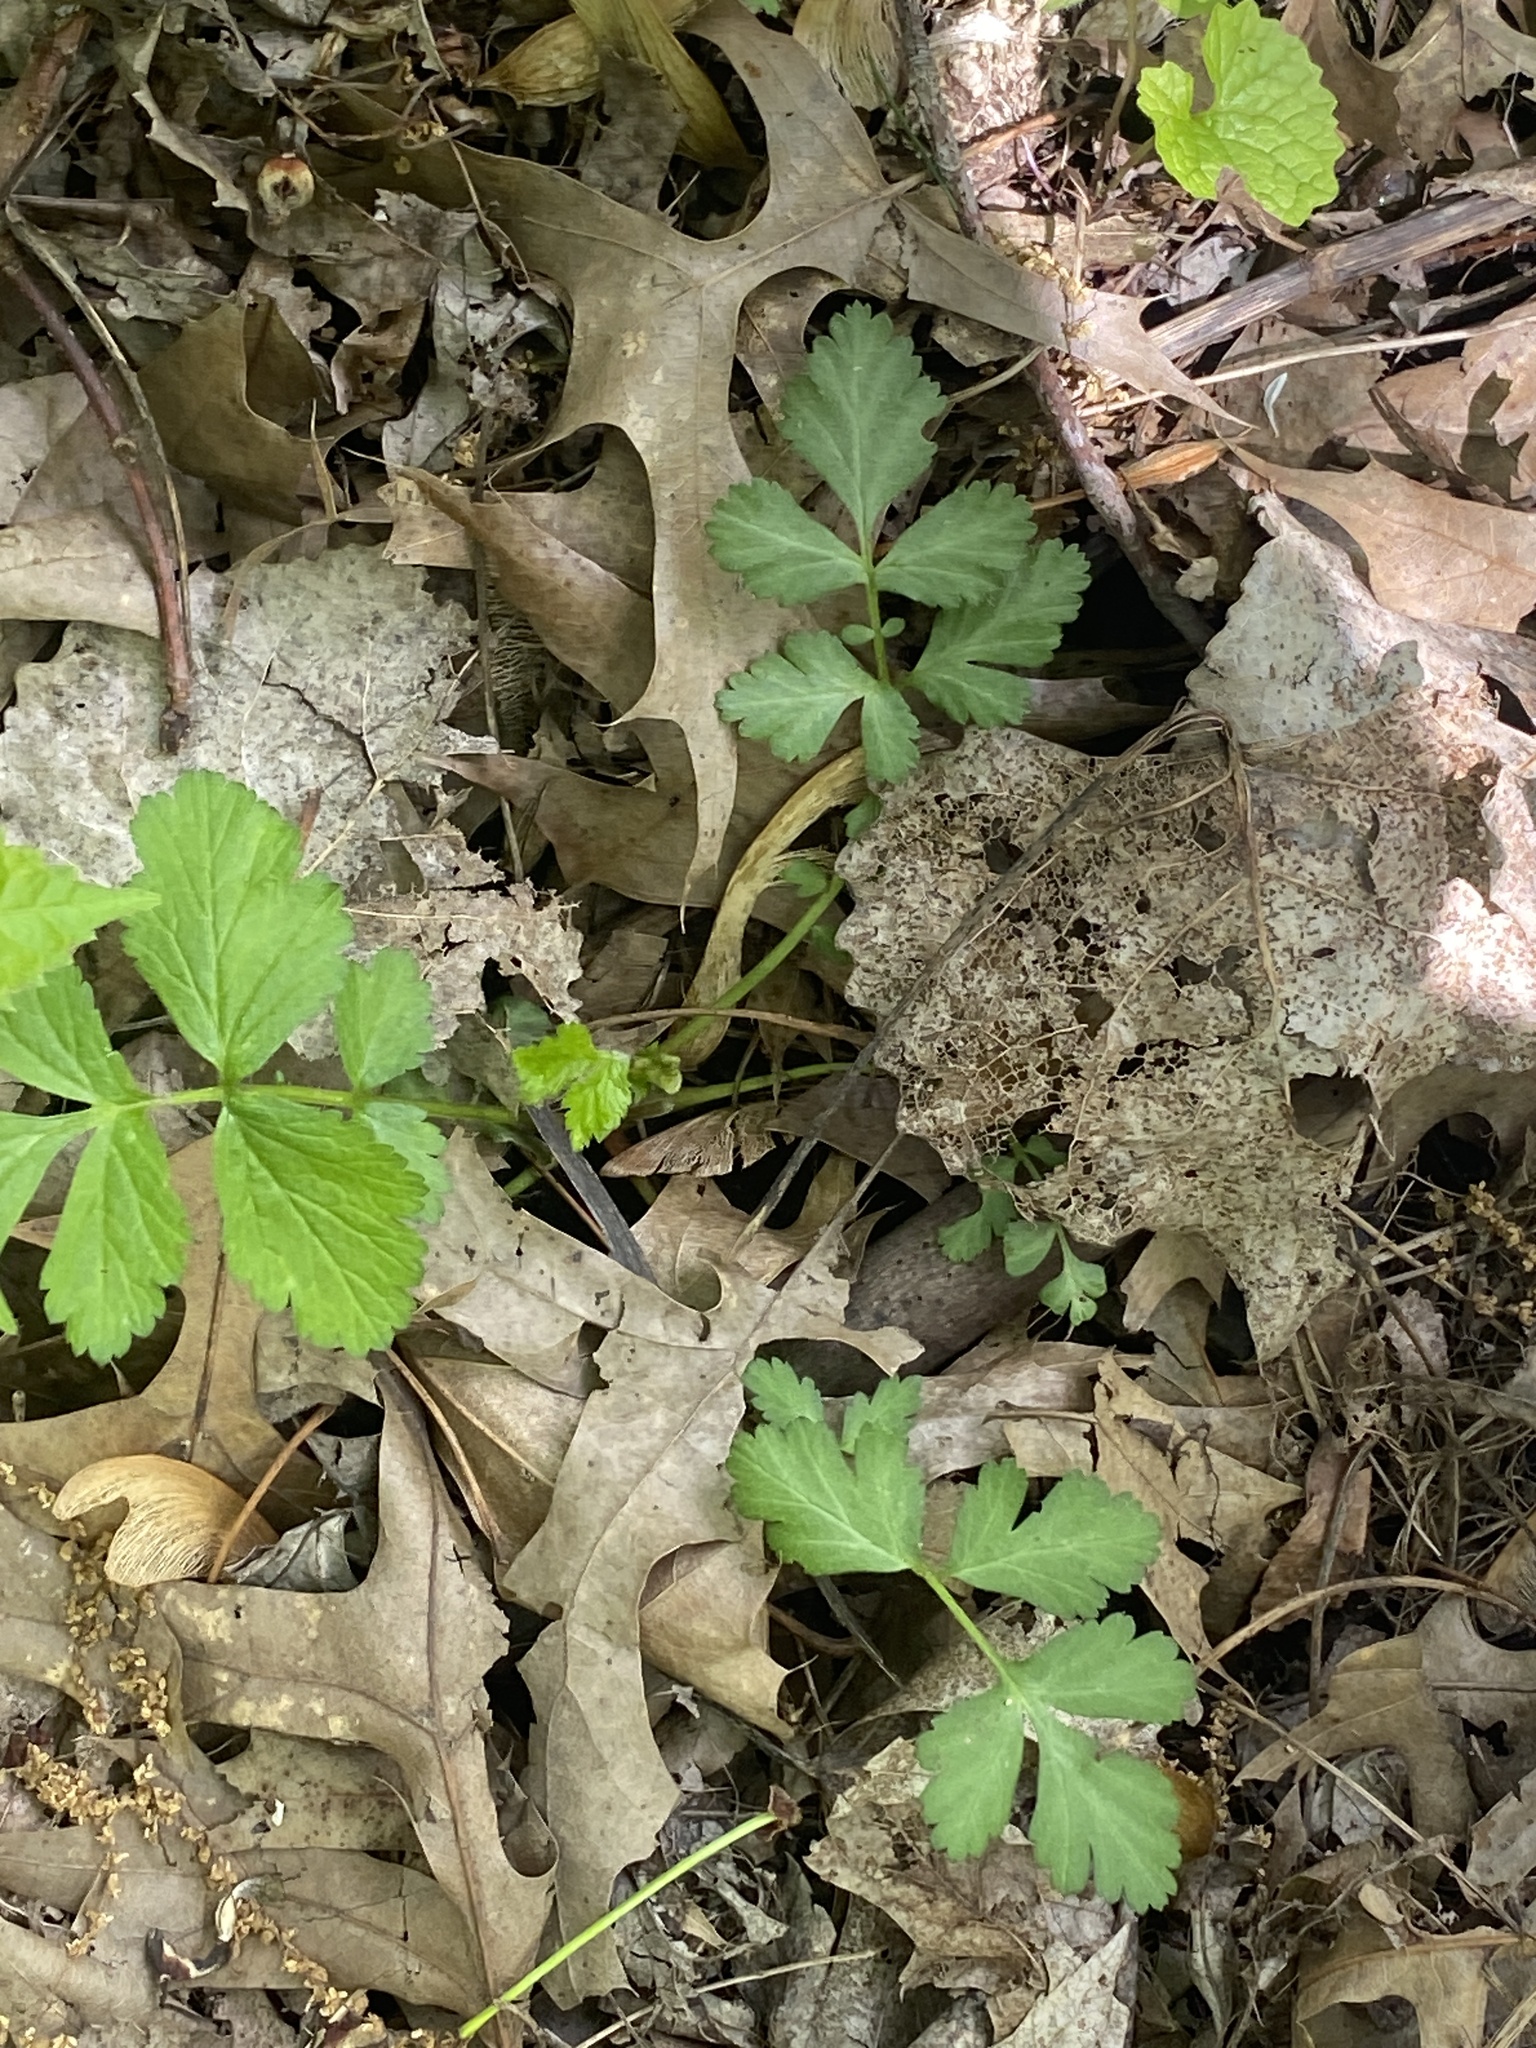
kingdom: Plantae
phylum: Tracheophyta
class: Magnoliopsida
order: Rosales
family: Rosaceae
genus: Geum
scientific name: Geum canadense
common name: White avens
